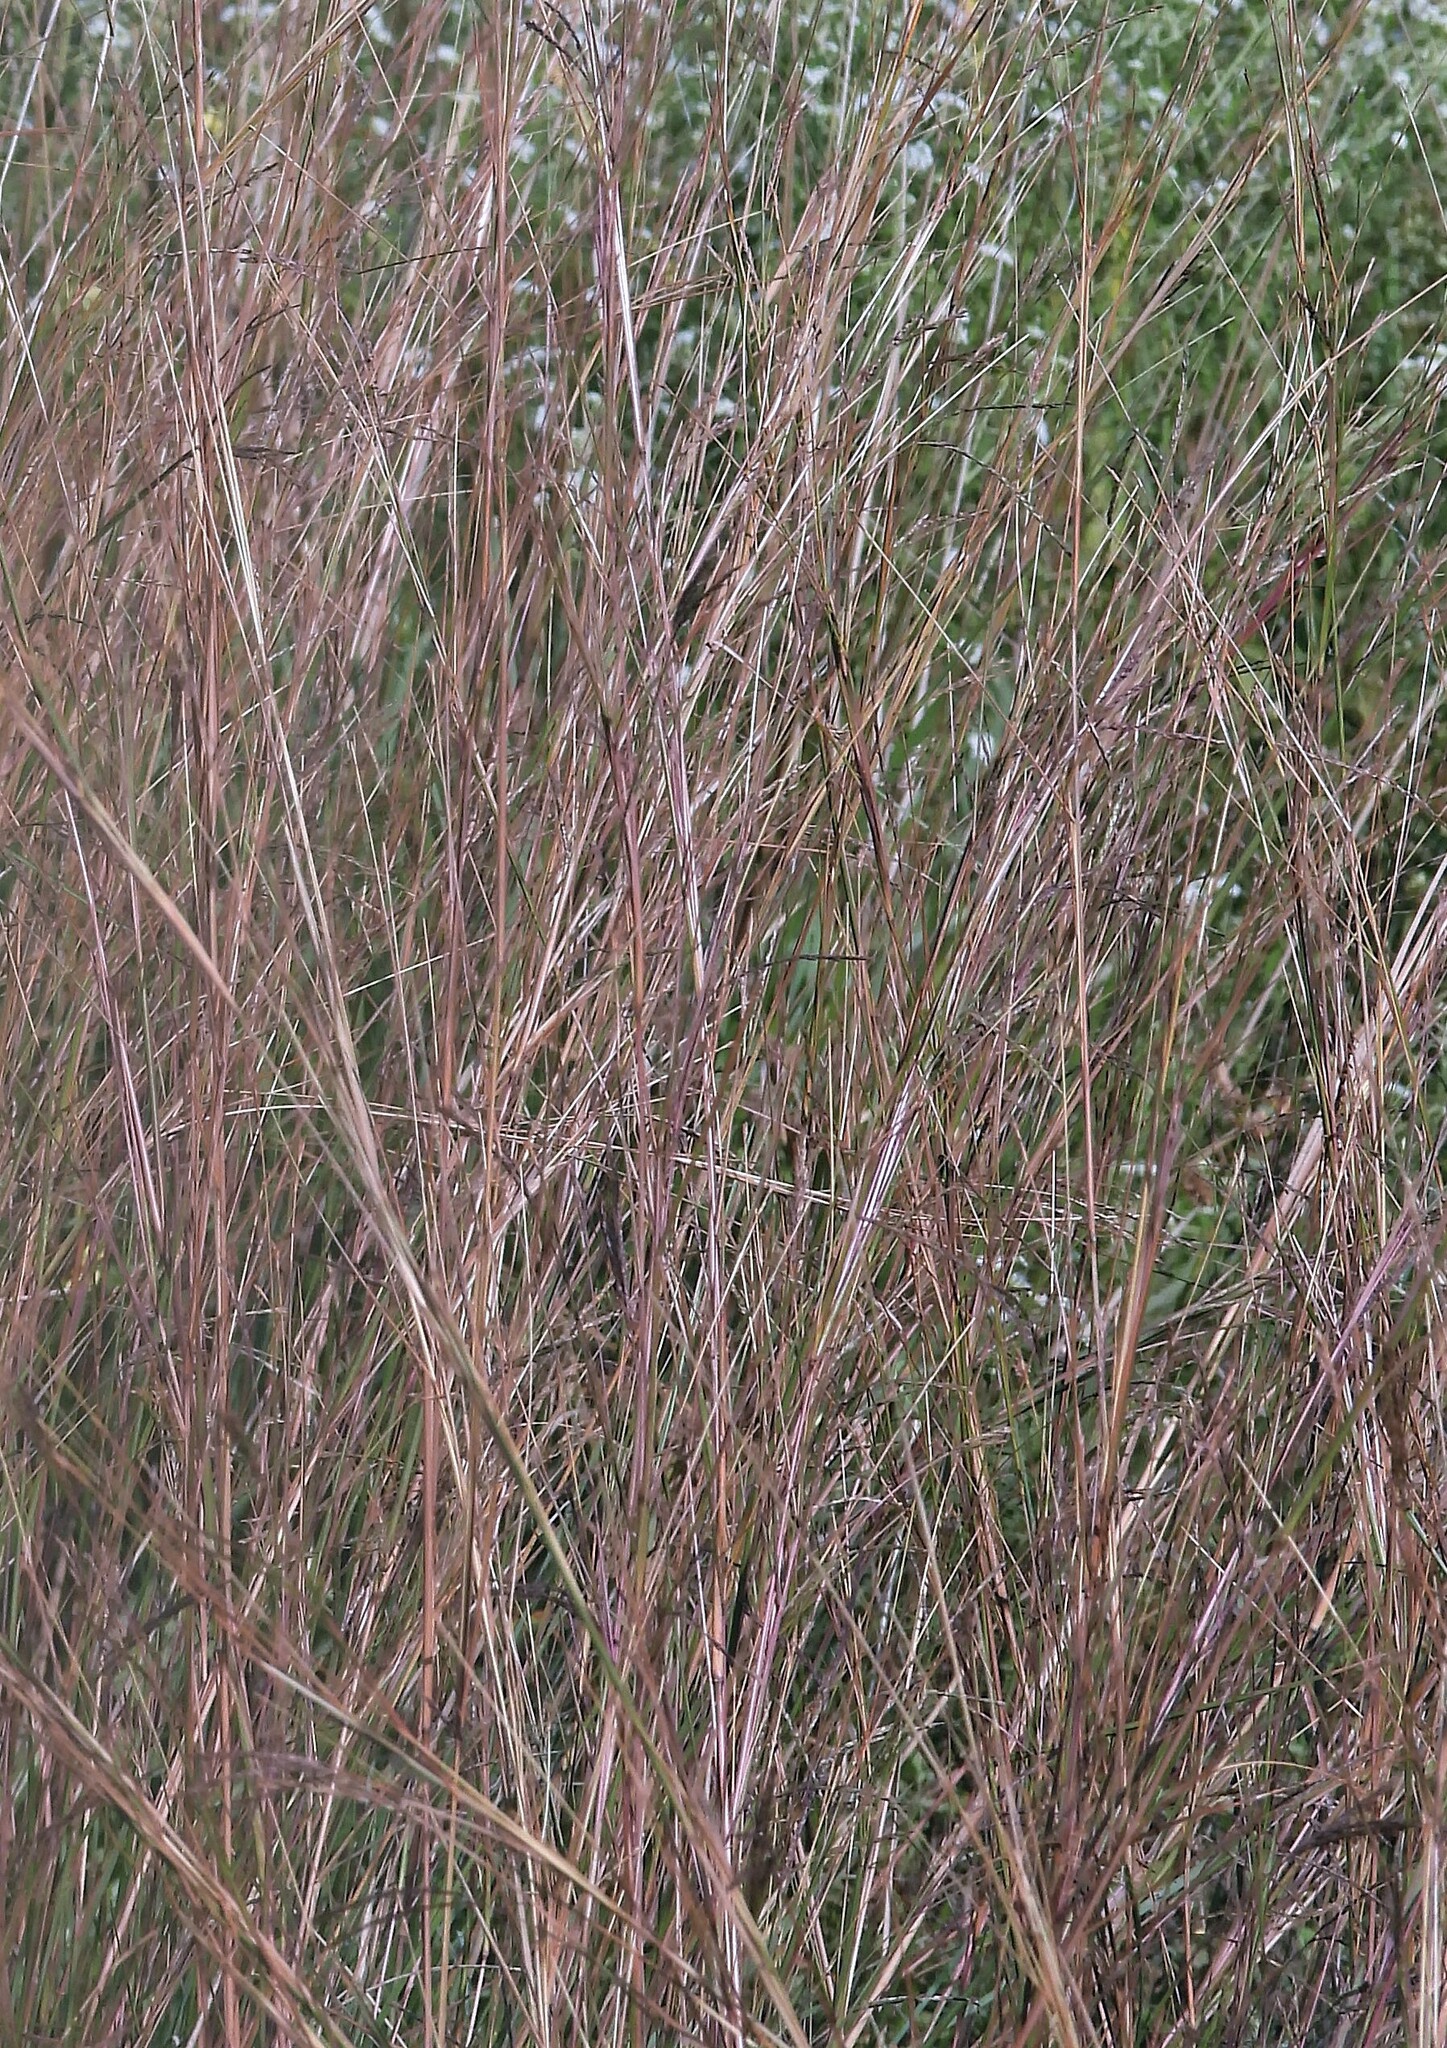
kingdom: Plantae
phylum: Tracheophyta
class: Liliopsida
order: Poales
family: Poaceae
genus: Andropogon
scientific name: Andropogon lateralis
